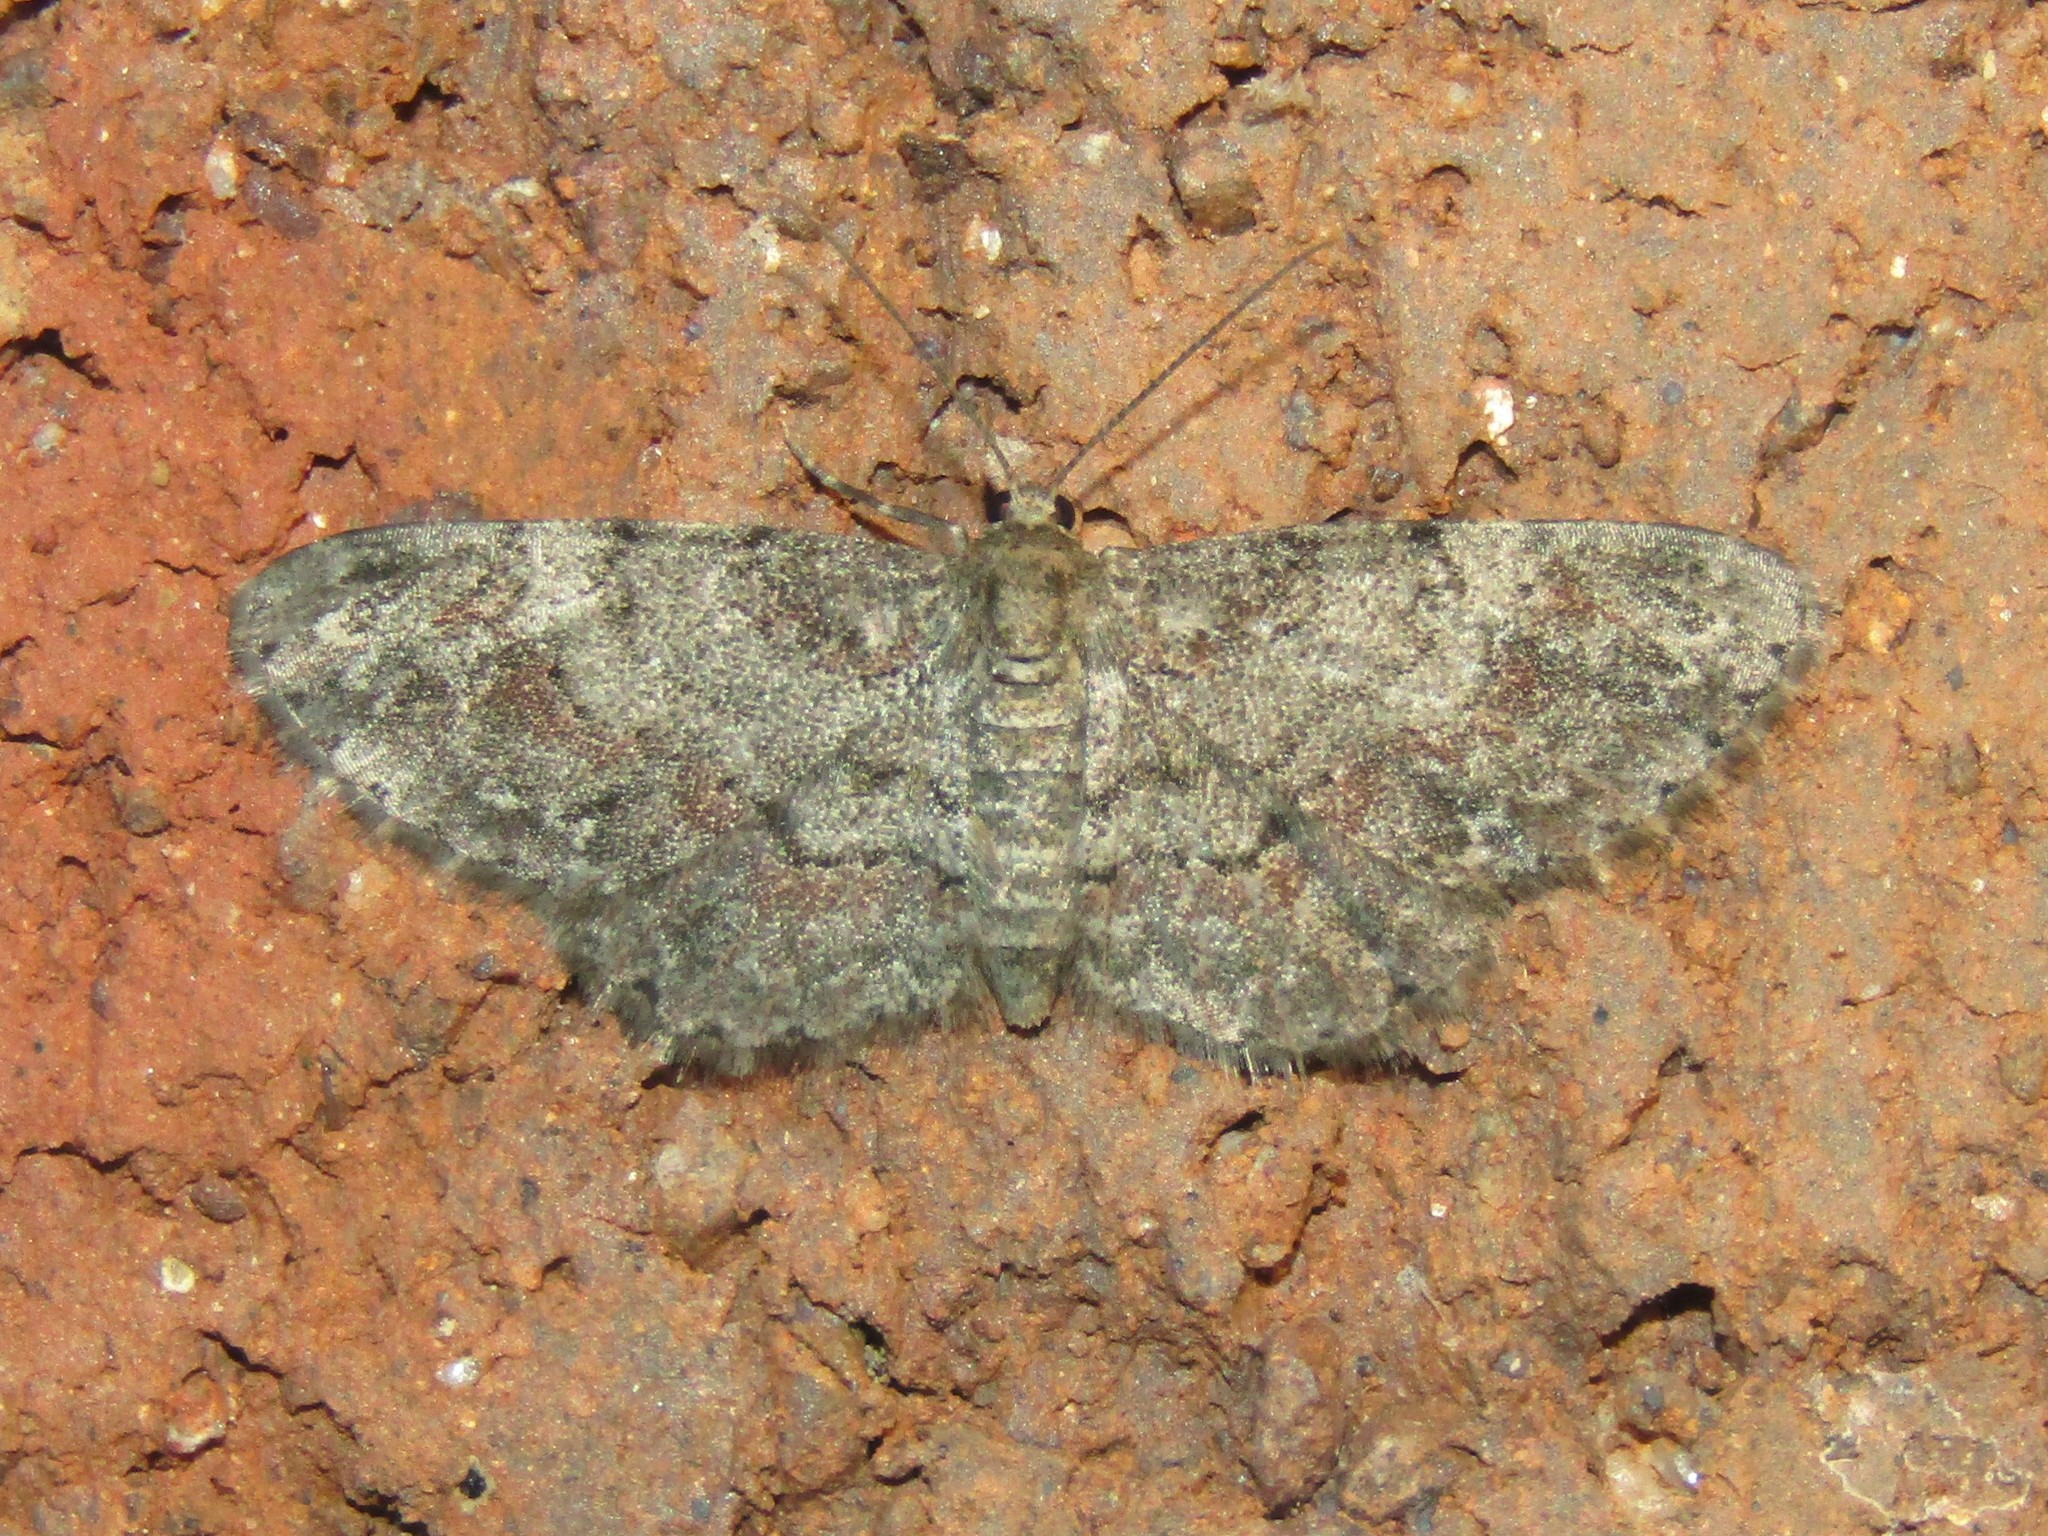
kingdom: Animalia
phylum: Arthropoda
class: Insecta
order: Lepidoptera
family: Geometridae
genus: Glenoides
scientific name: Glenoides texanaria
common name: Texas gray
